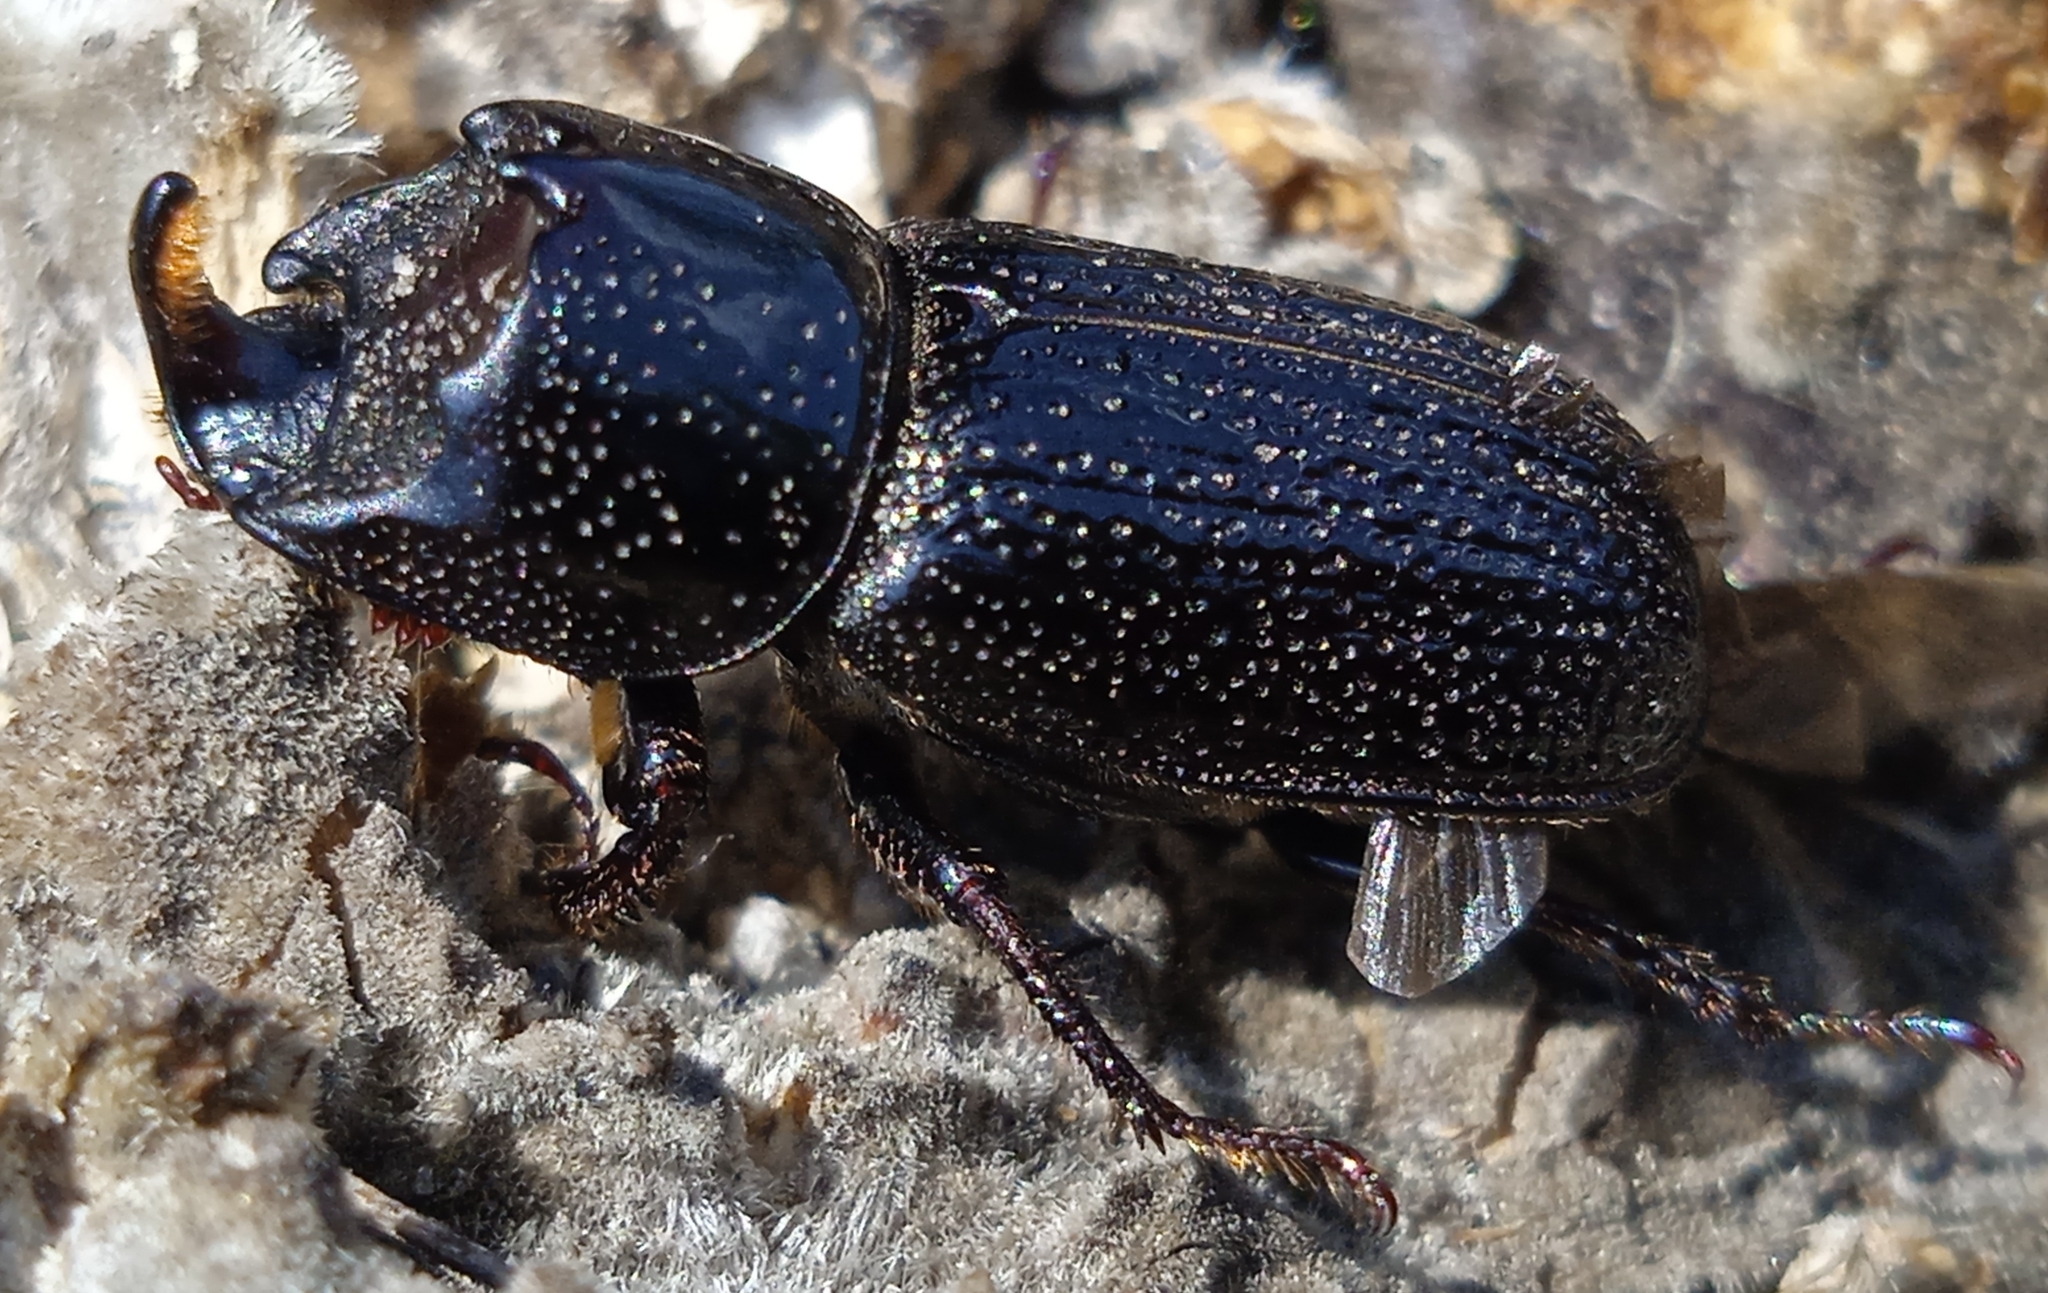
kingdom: Animalia
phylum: Arthropoda
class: Insecta
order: Coleoptera
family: Lucanidae
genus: Sinodendron
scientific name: Sinodendron cylindricum
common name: Rhinoceros beetle
